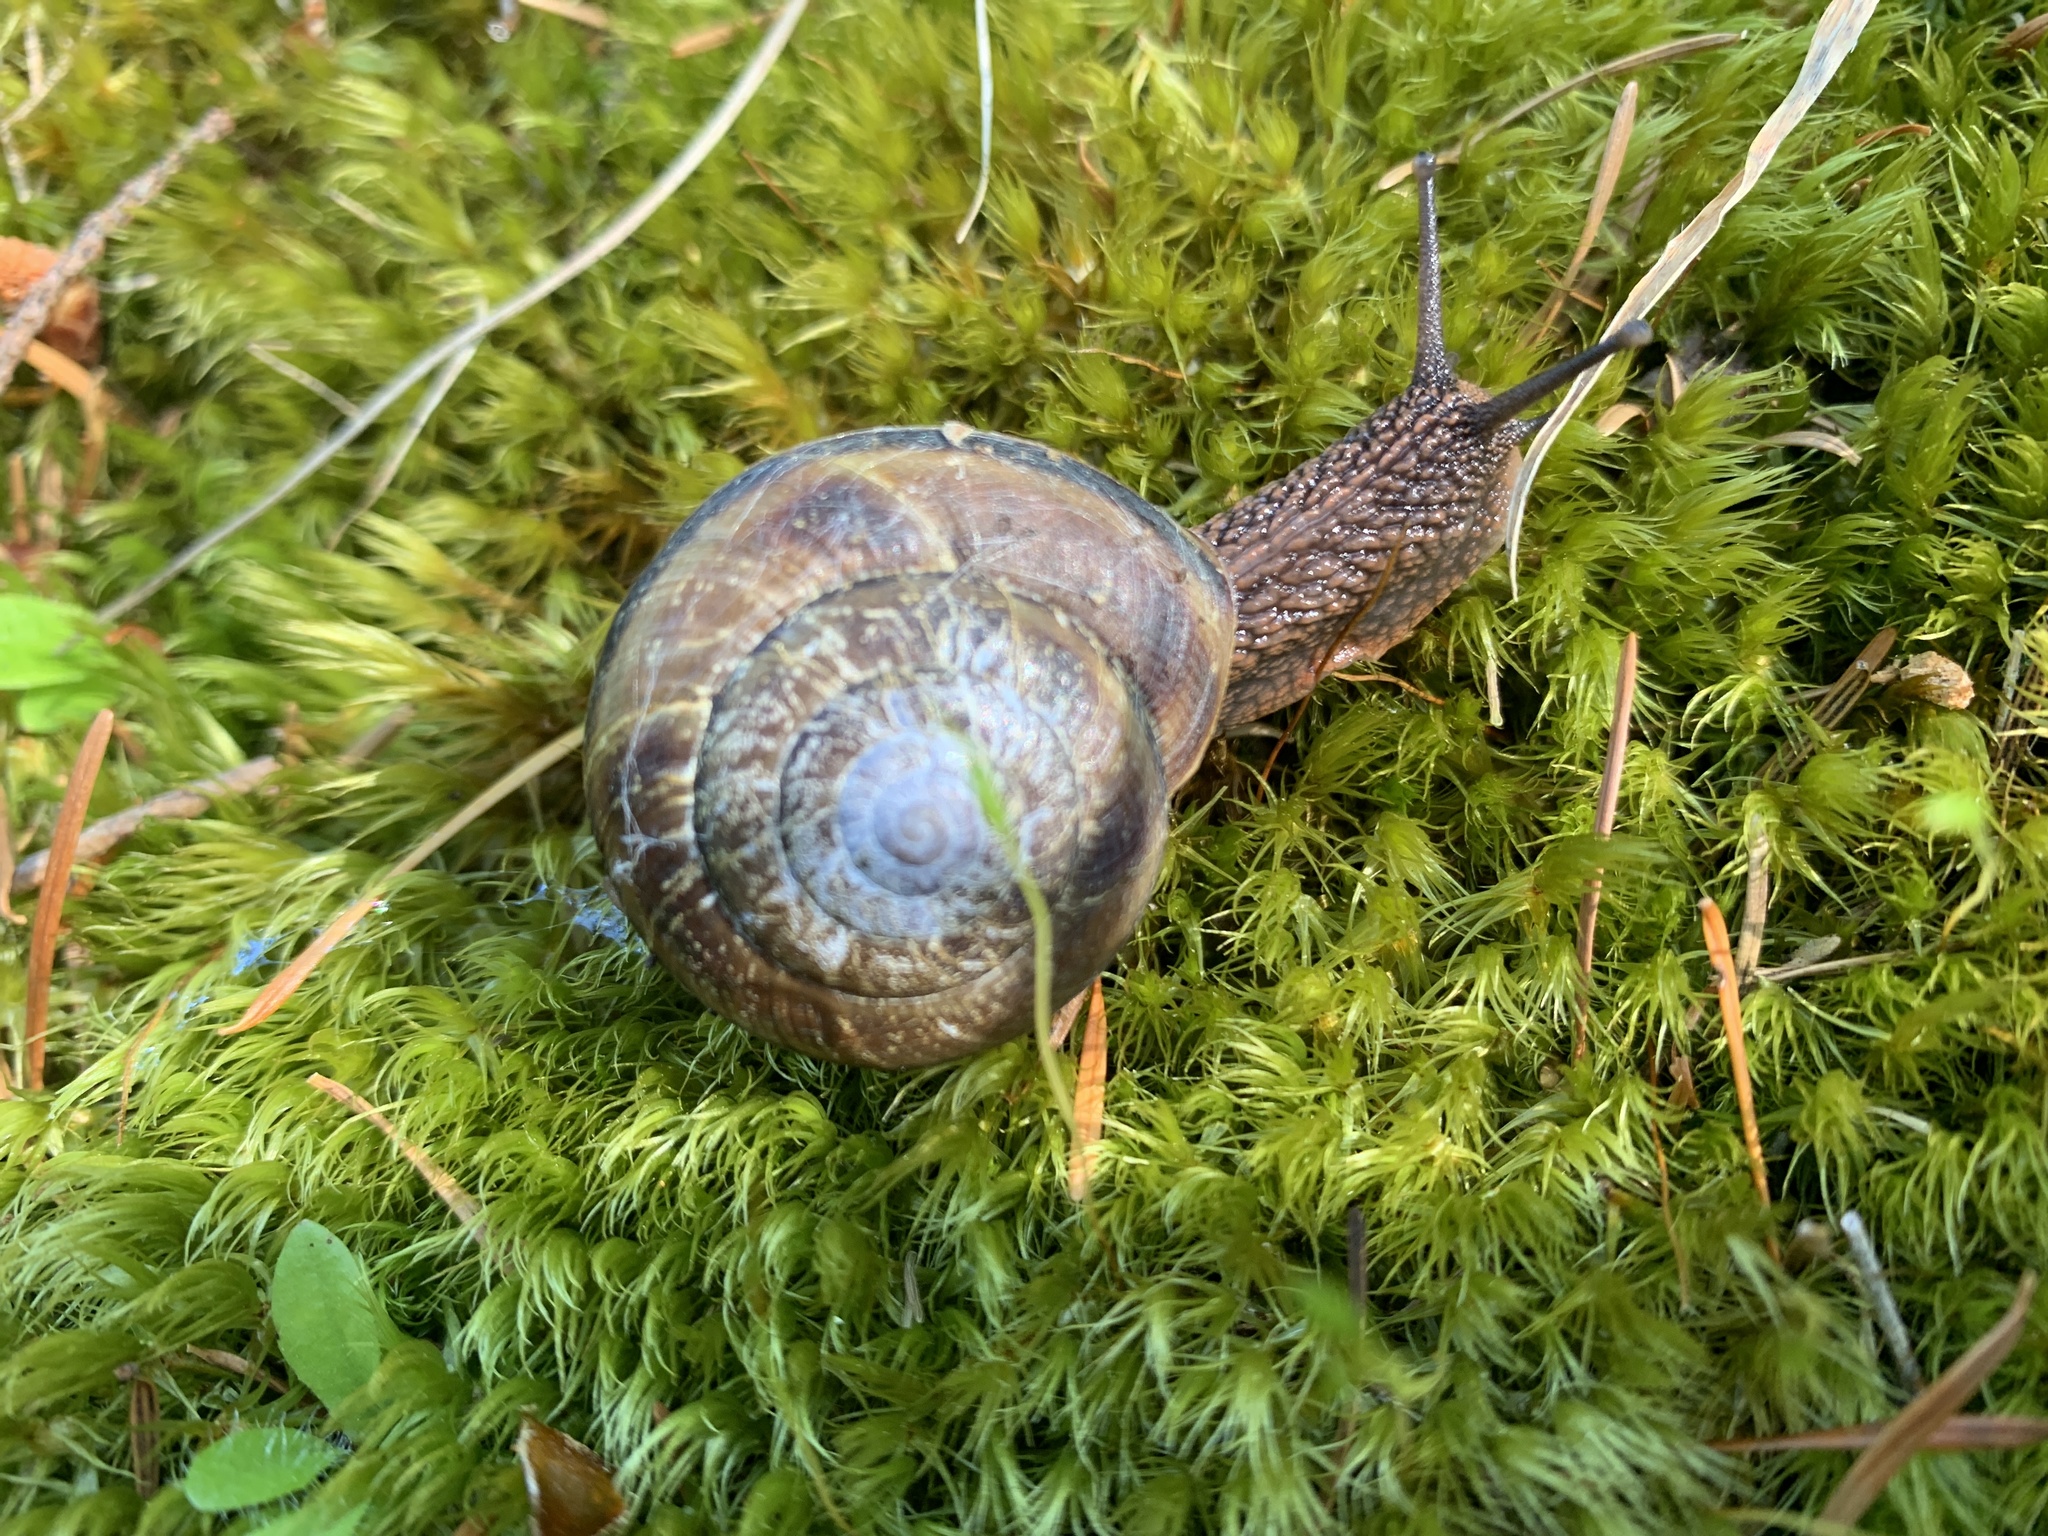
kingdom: Animalia
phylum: Mollusca
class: Gastropoda
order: Stylommatophora
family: Xanthonychidae
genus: Monadenia
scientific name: Monadenia fidelis
